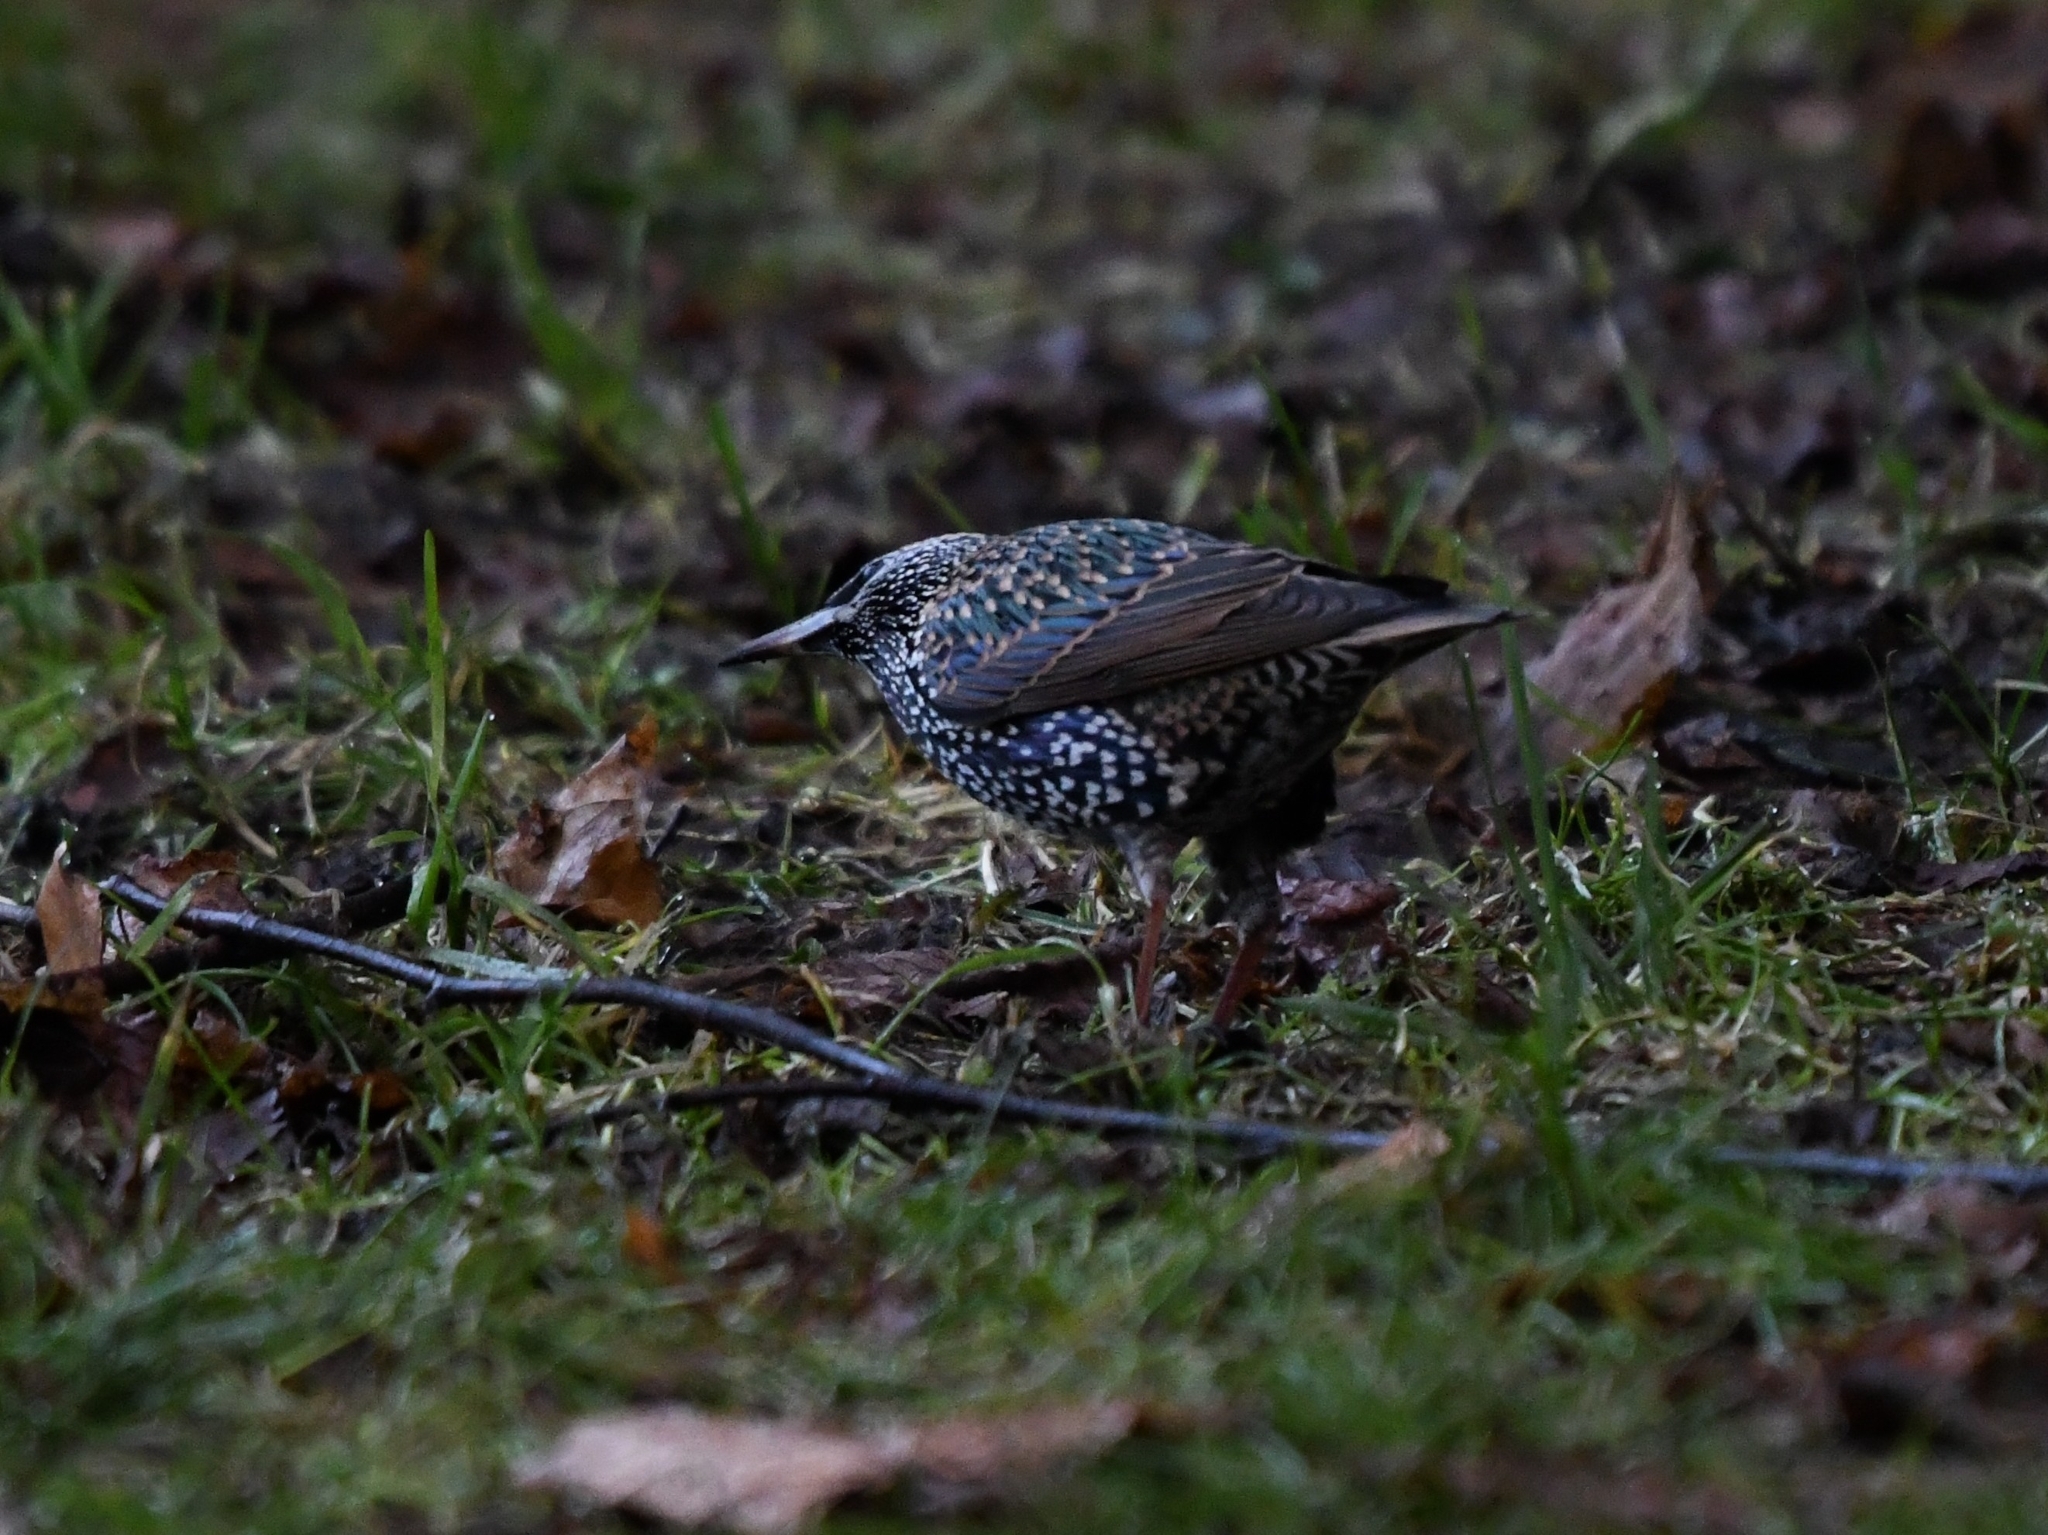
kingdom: Animalia
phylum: Chordata
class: Aves
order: Passeriformes
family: Sturnidae
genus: Sturnus
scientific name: Sturnus vulgaris
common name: Common starling
